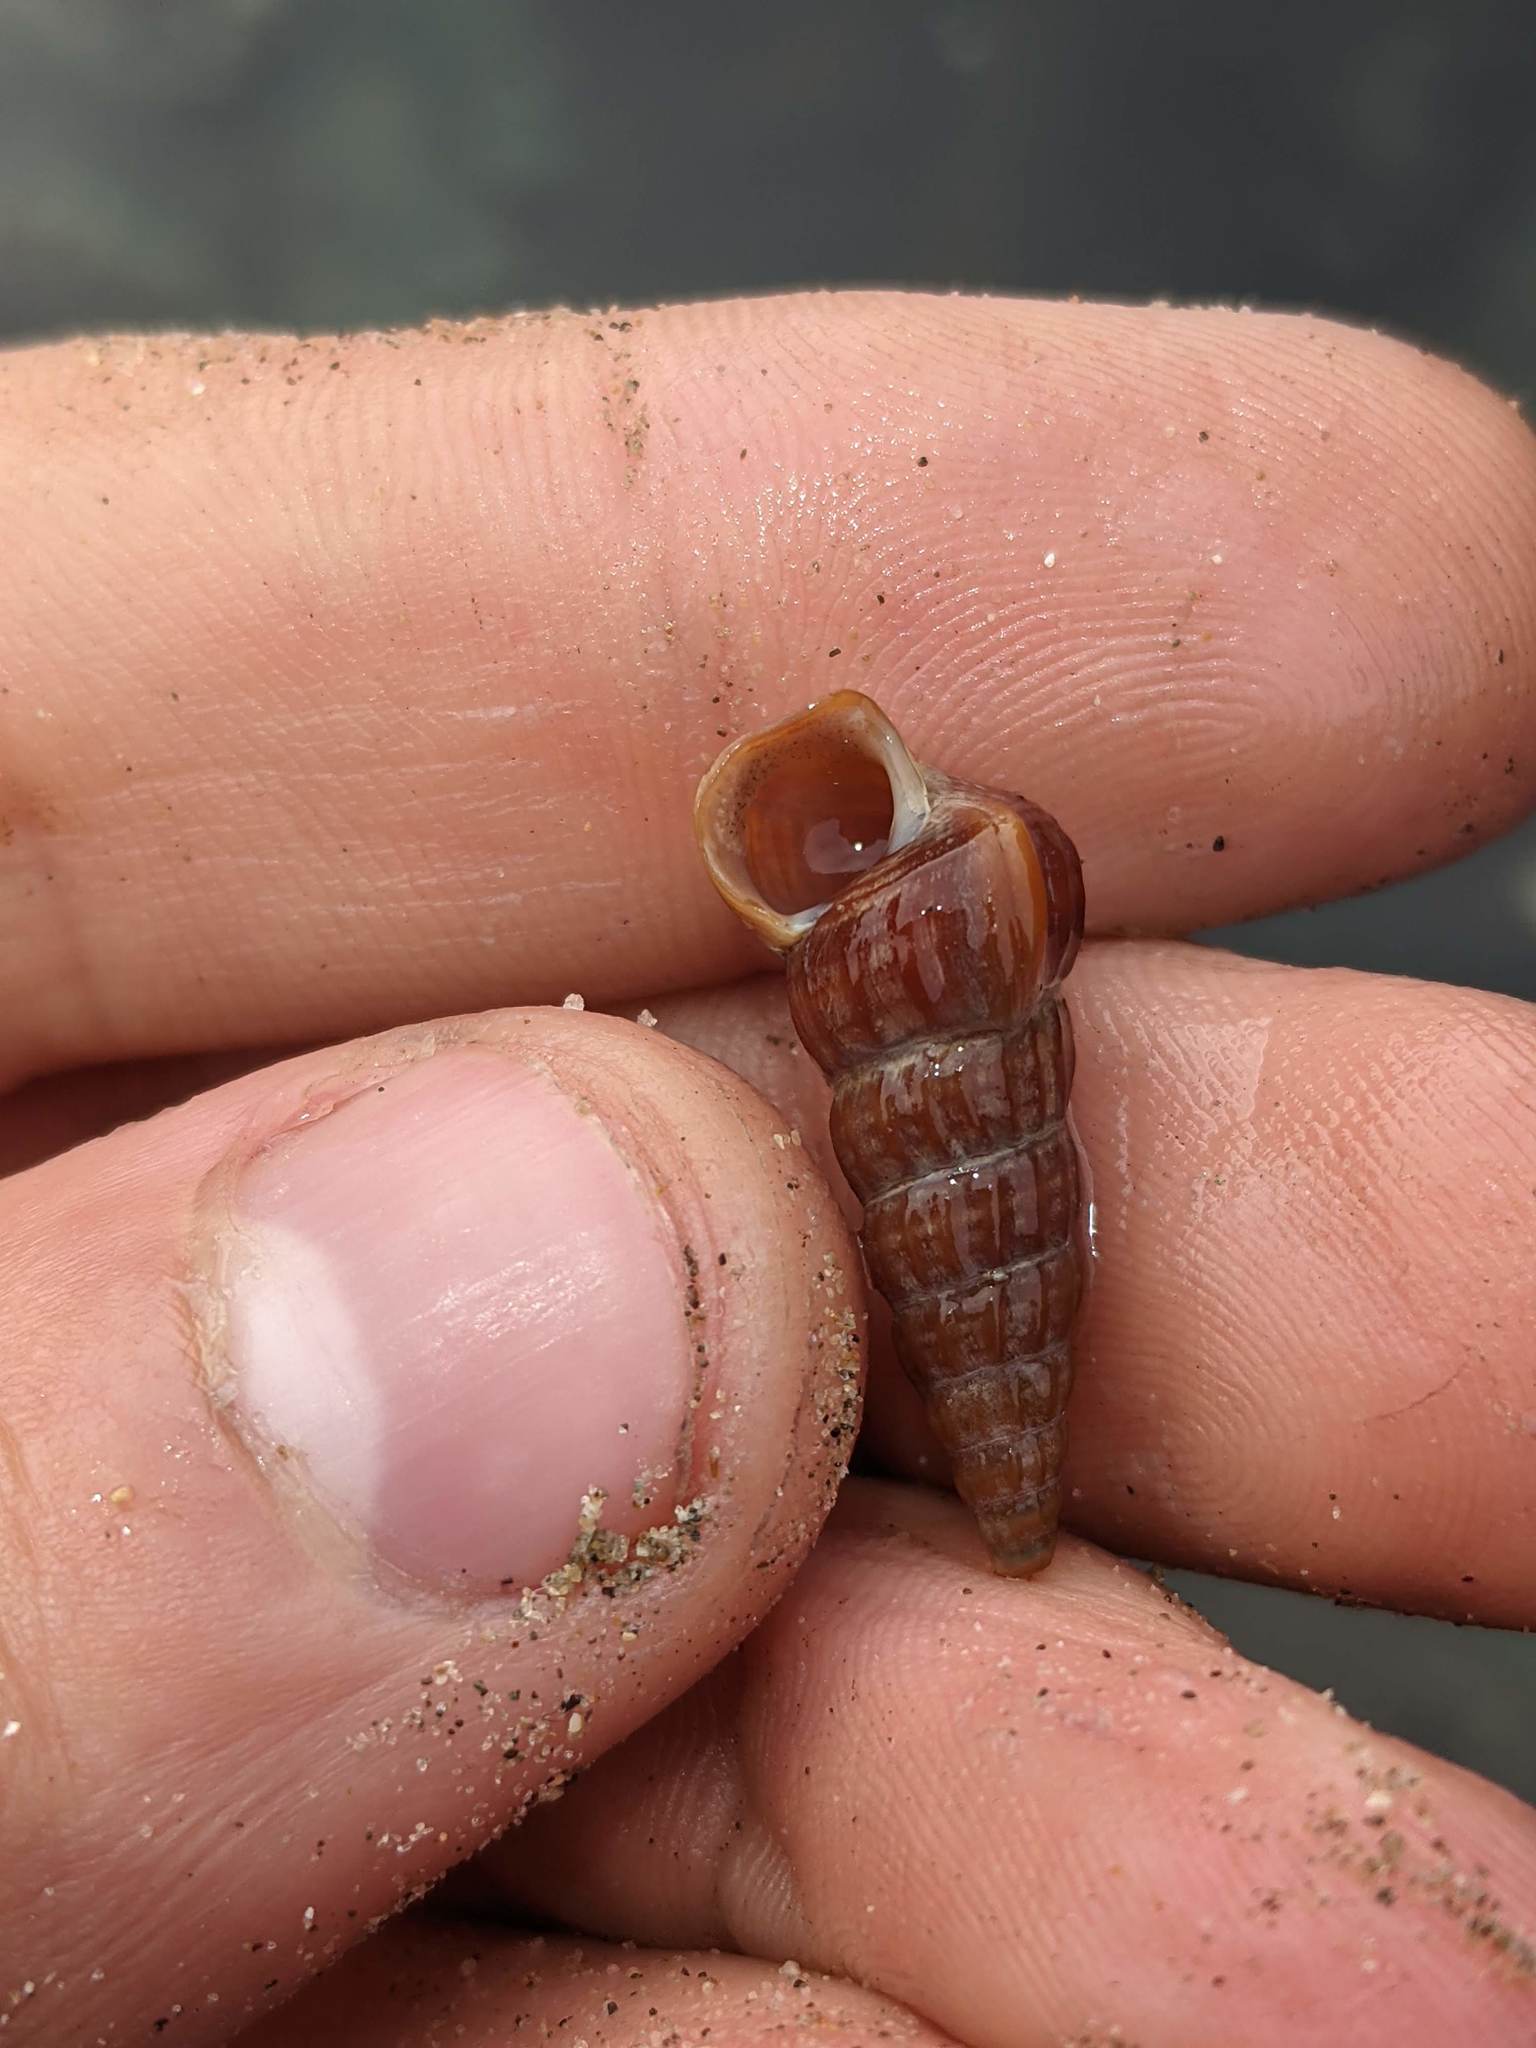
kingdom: Animalia
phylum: Mollusca
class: Gastropoda
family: Potamididae
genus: Cerithideopsis
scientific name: Cerithideopsis californica
